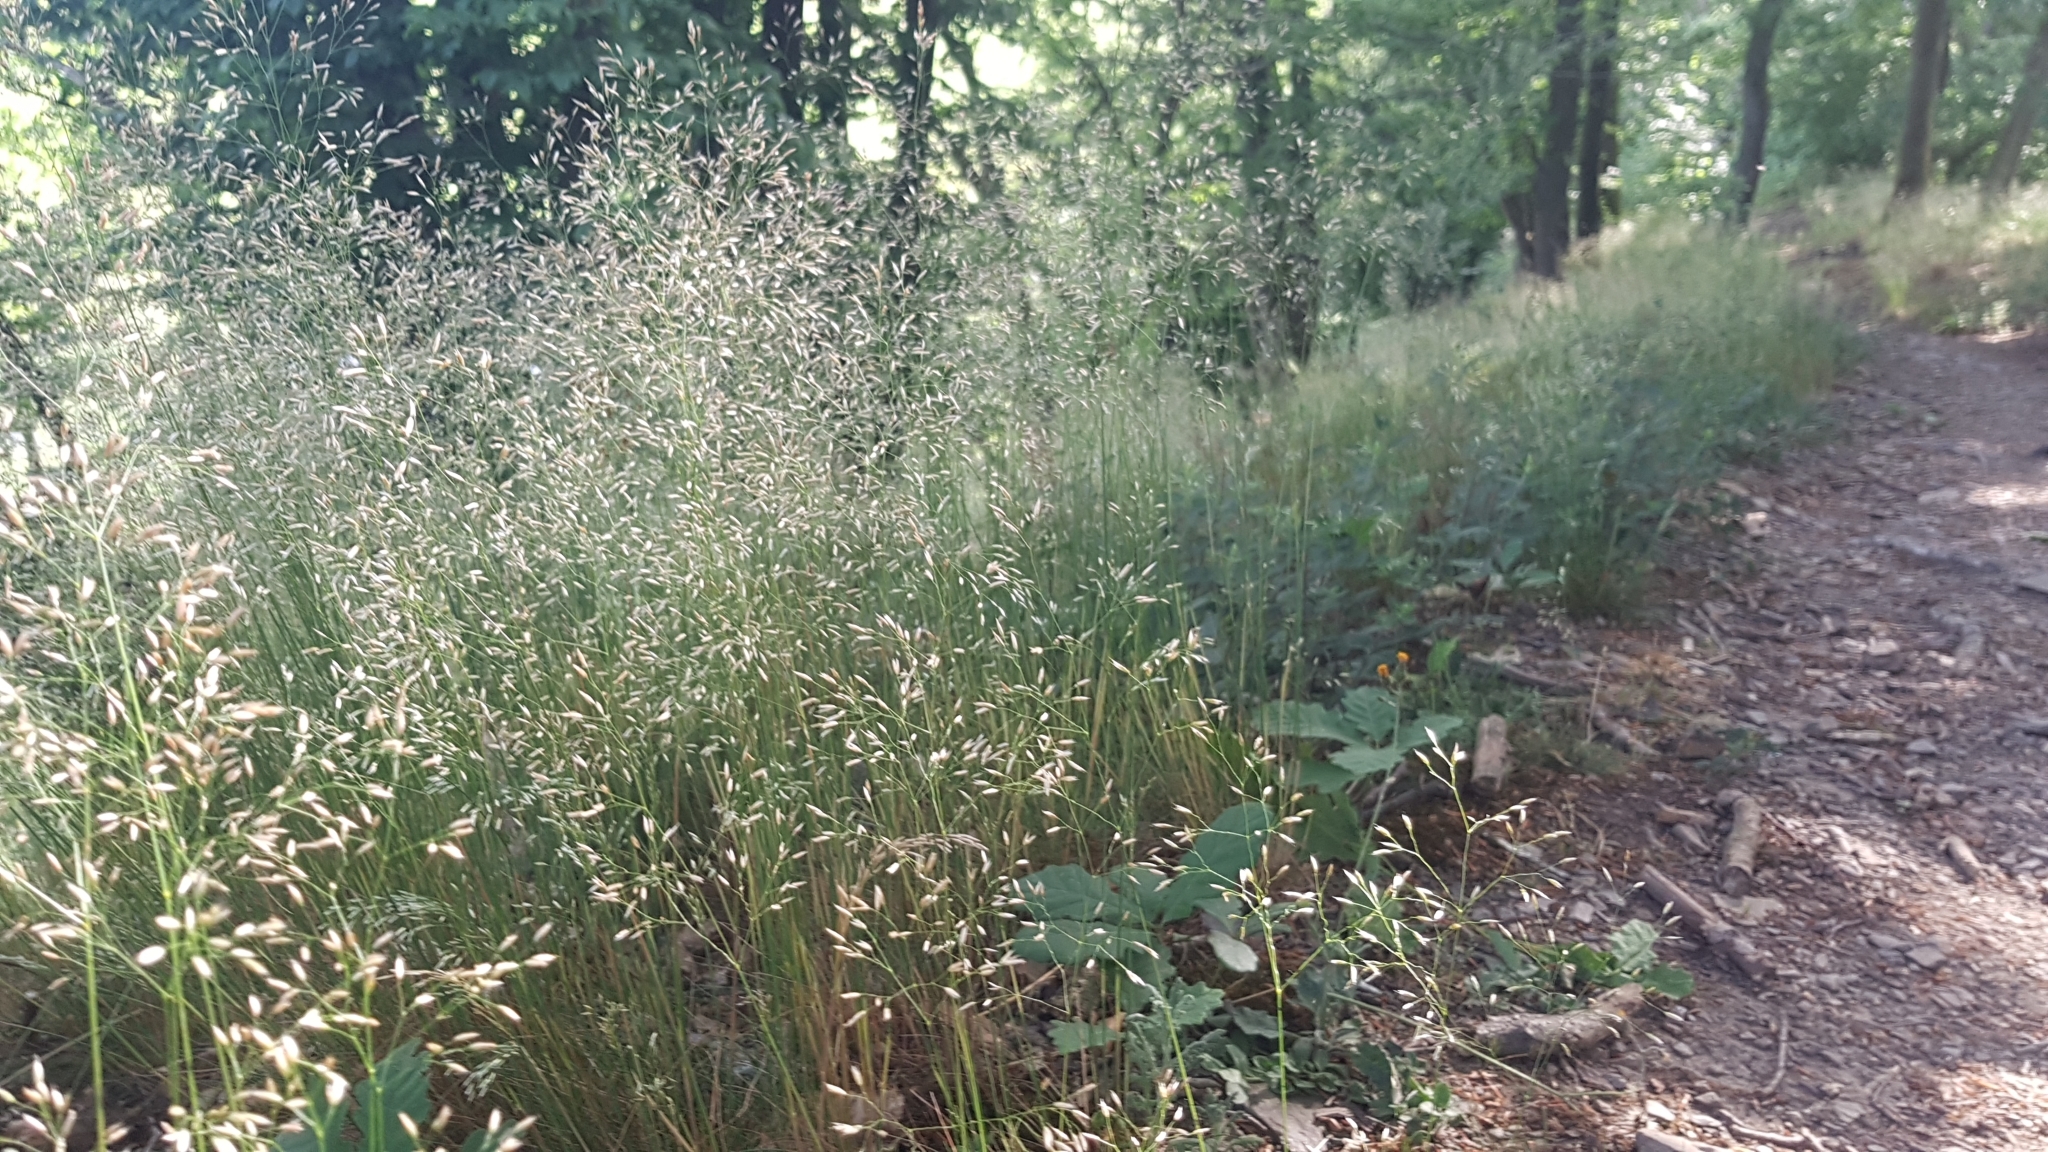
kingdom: Plantae
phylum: Tracheophyta
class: Liliopsida
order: Poales
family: Poaceae
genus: Avenella
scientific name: Avenella flexuosa
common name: Wavy hairgrass
